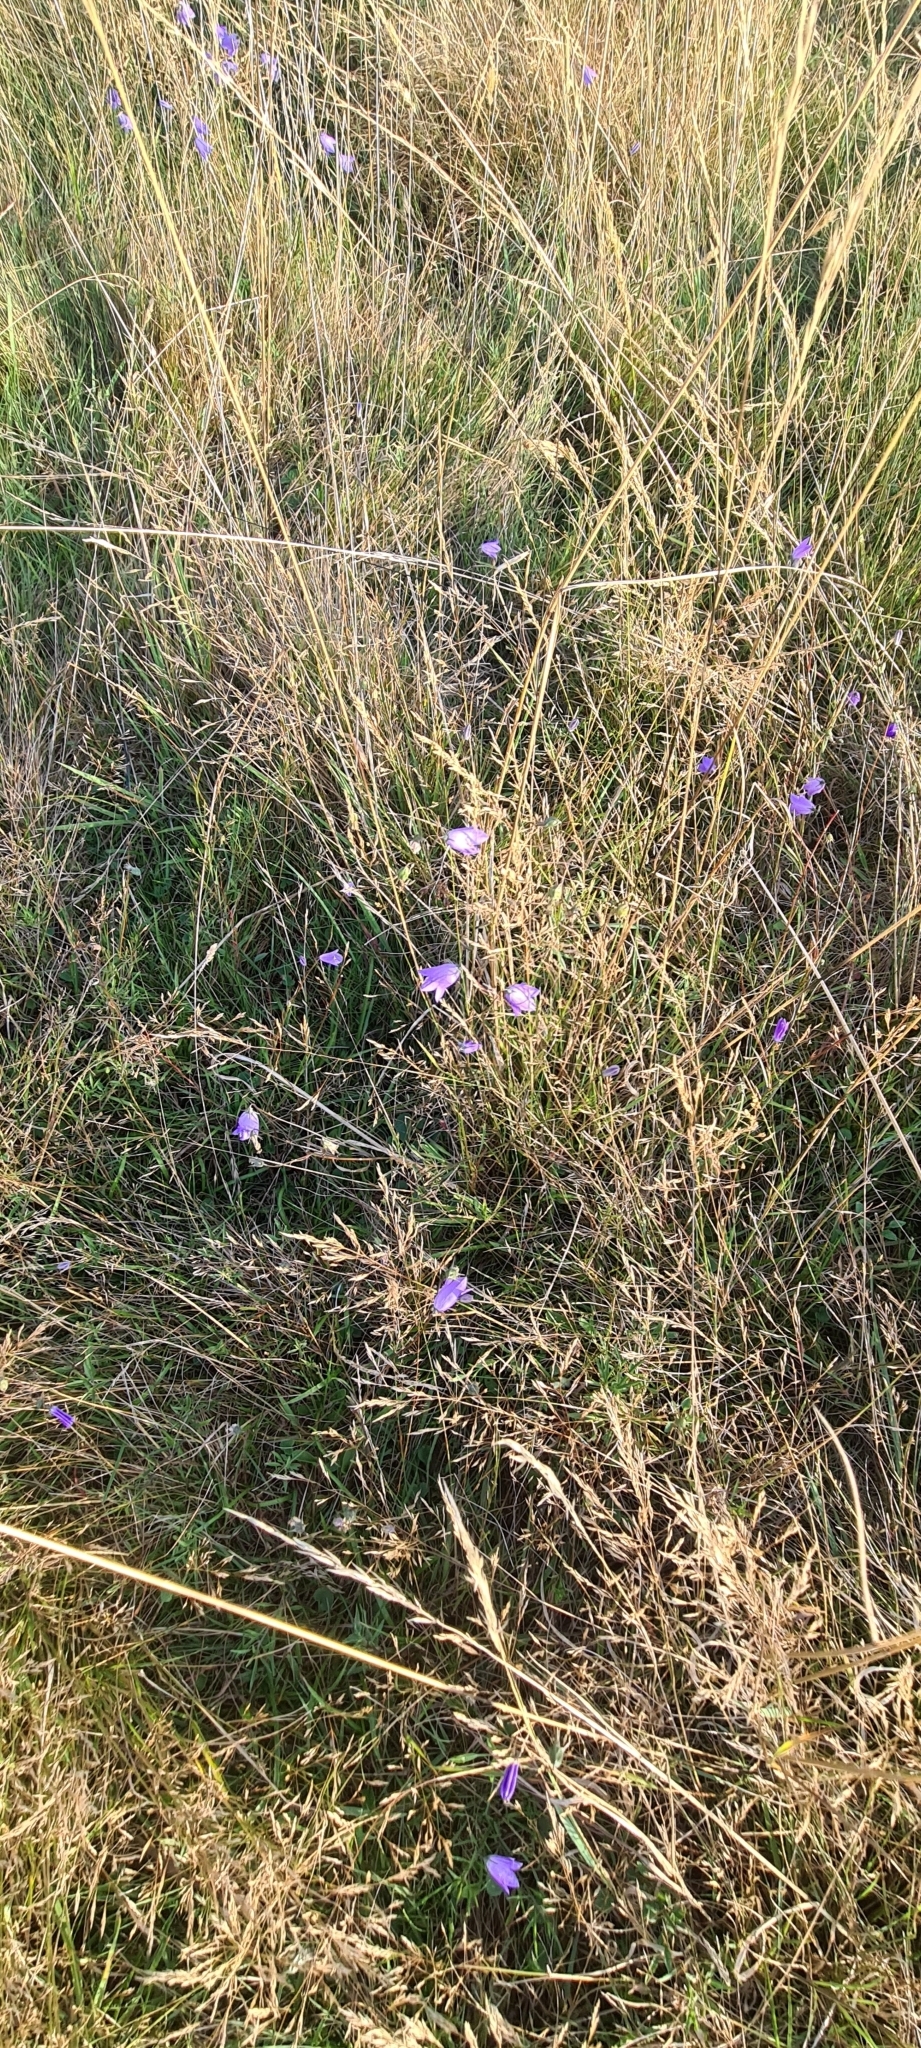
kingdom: Plantae
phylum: Tracheophyta
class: Magnoliopsida
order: Asterales
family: Campanulaceae
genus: Campanula
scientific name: Campanula rotundifolia
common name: Harebell
